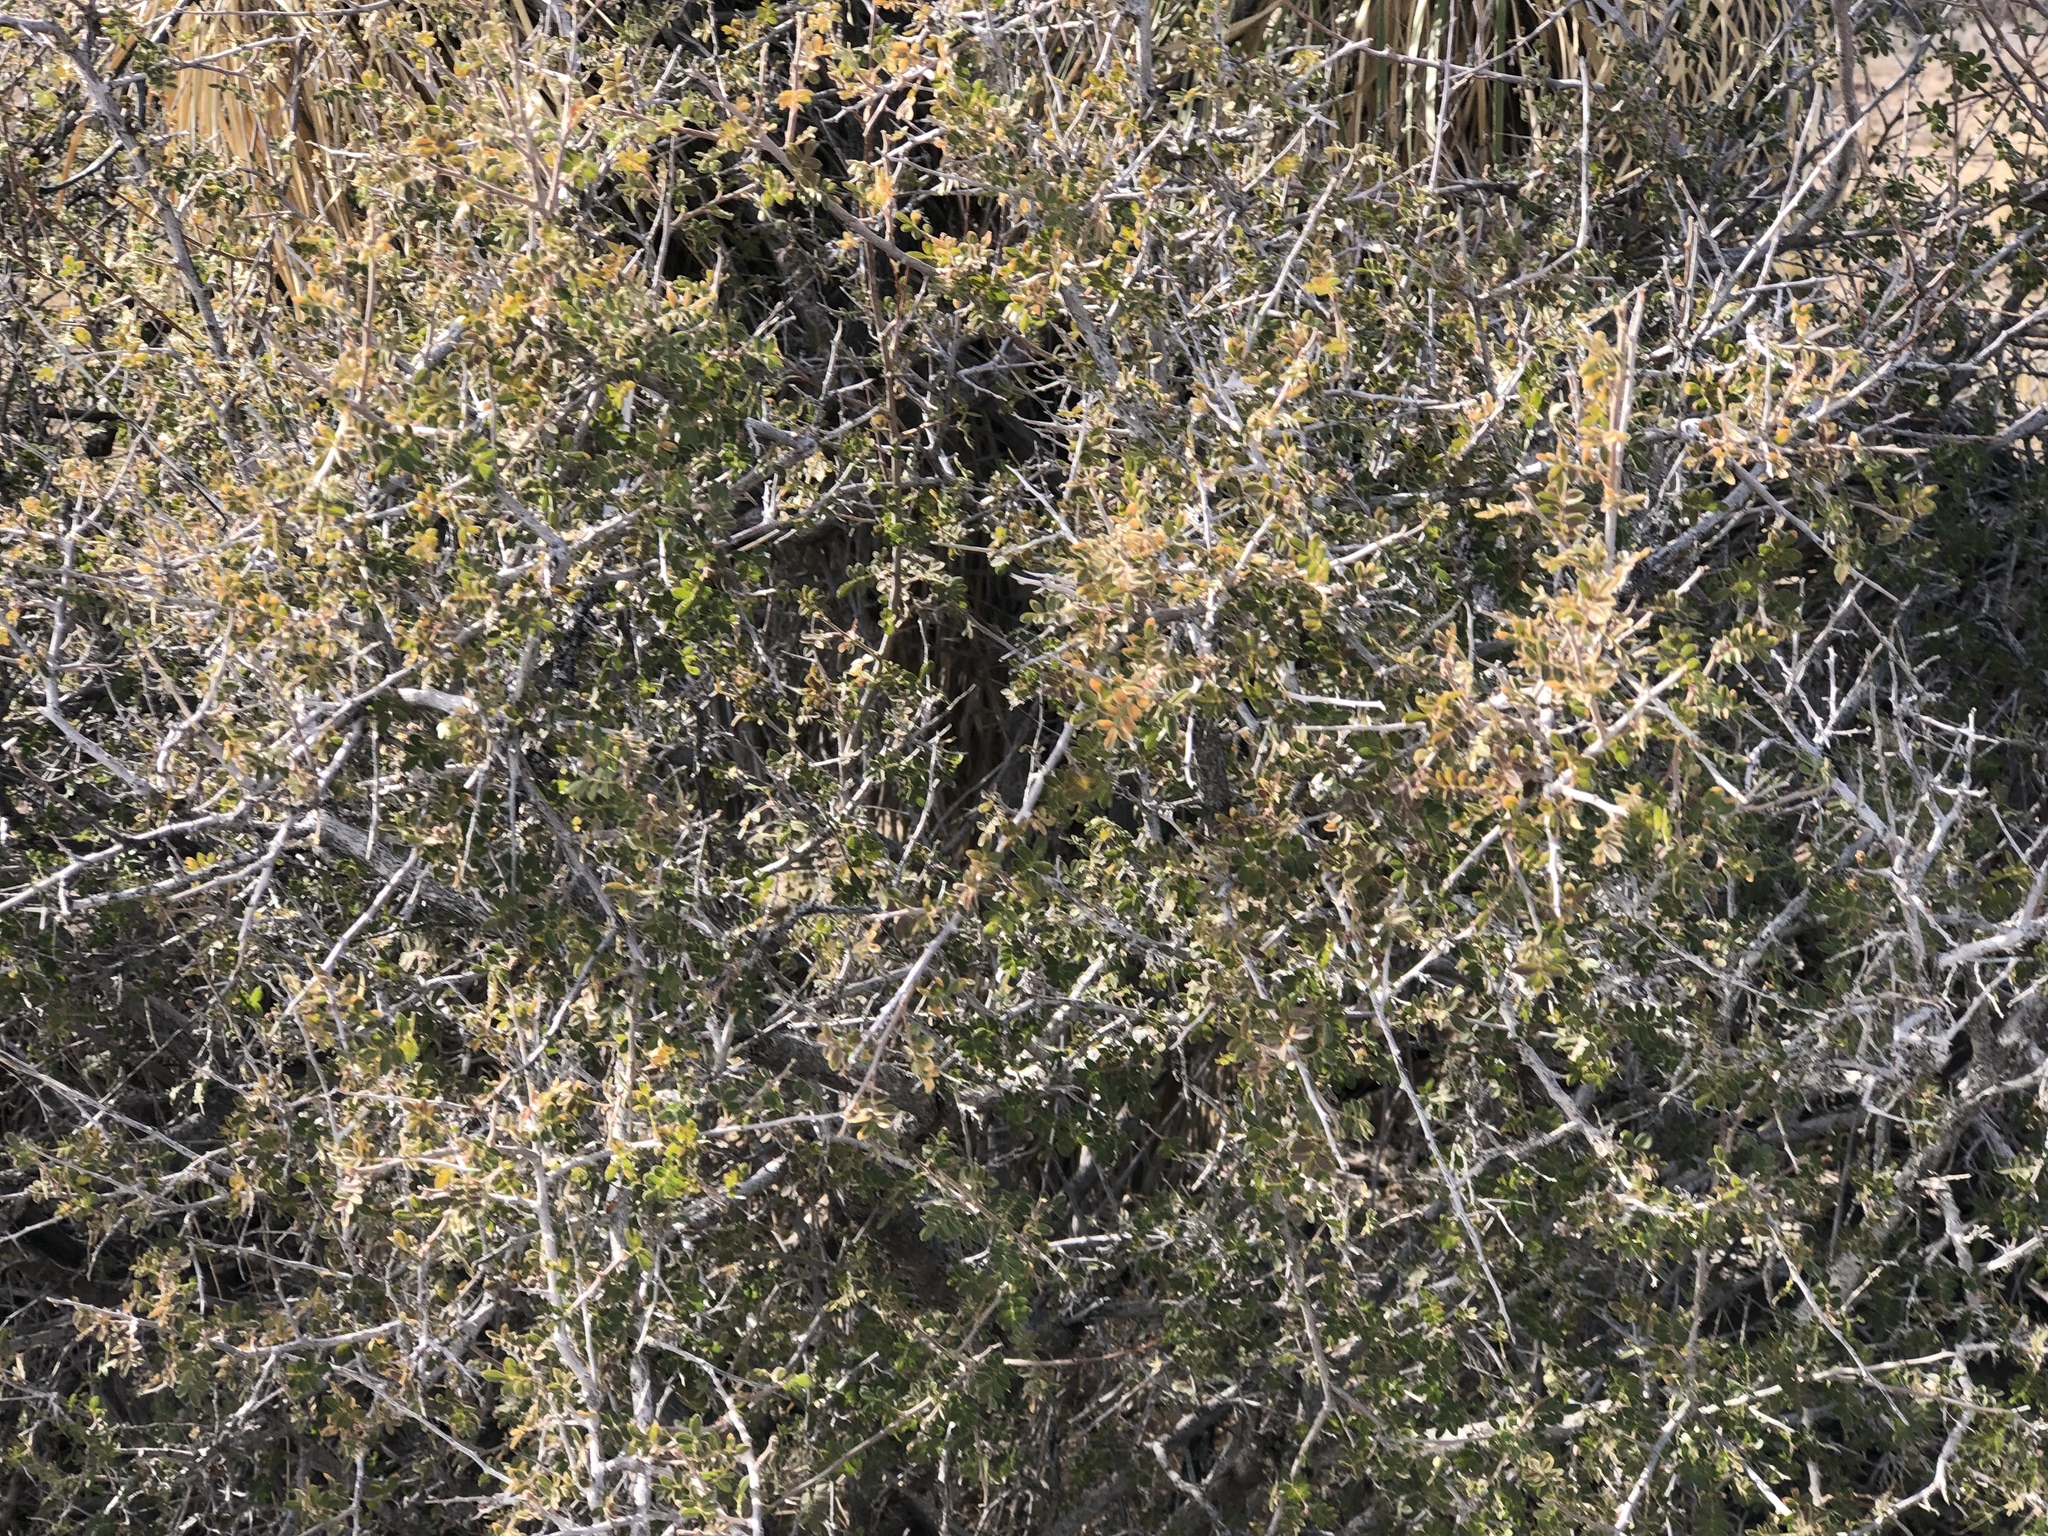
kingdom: Plantae
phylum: Tracheophyta
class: Magnoliopsida
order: Sapindales
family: Anacardiaceae
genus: Rhus
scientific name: Rhus microphylla
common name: Desert sumac
